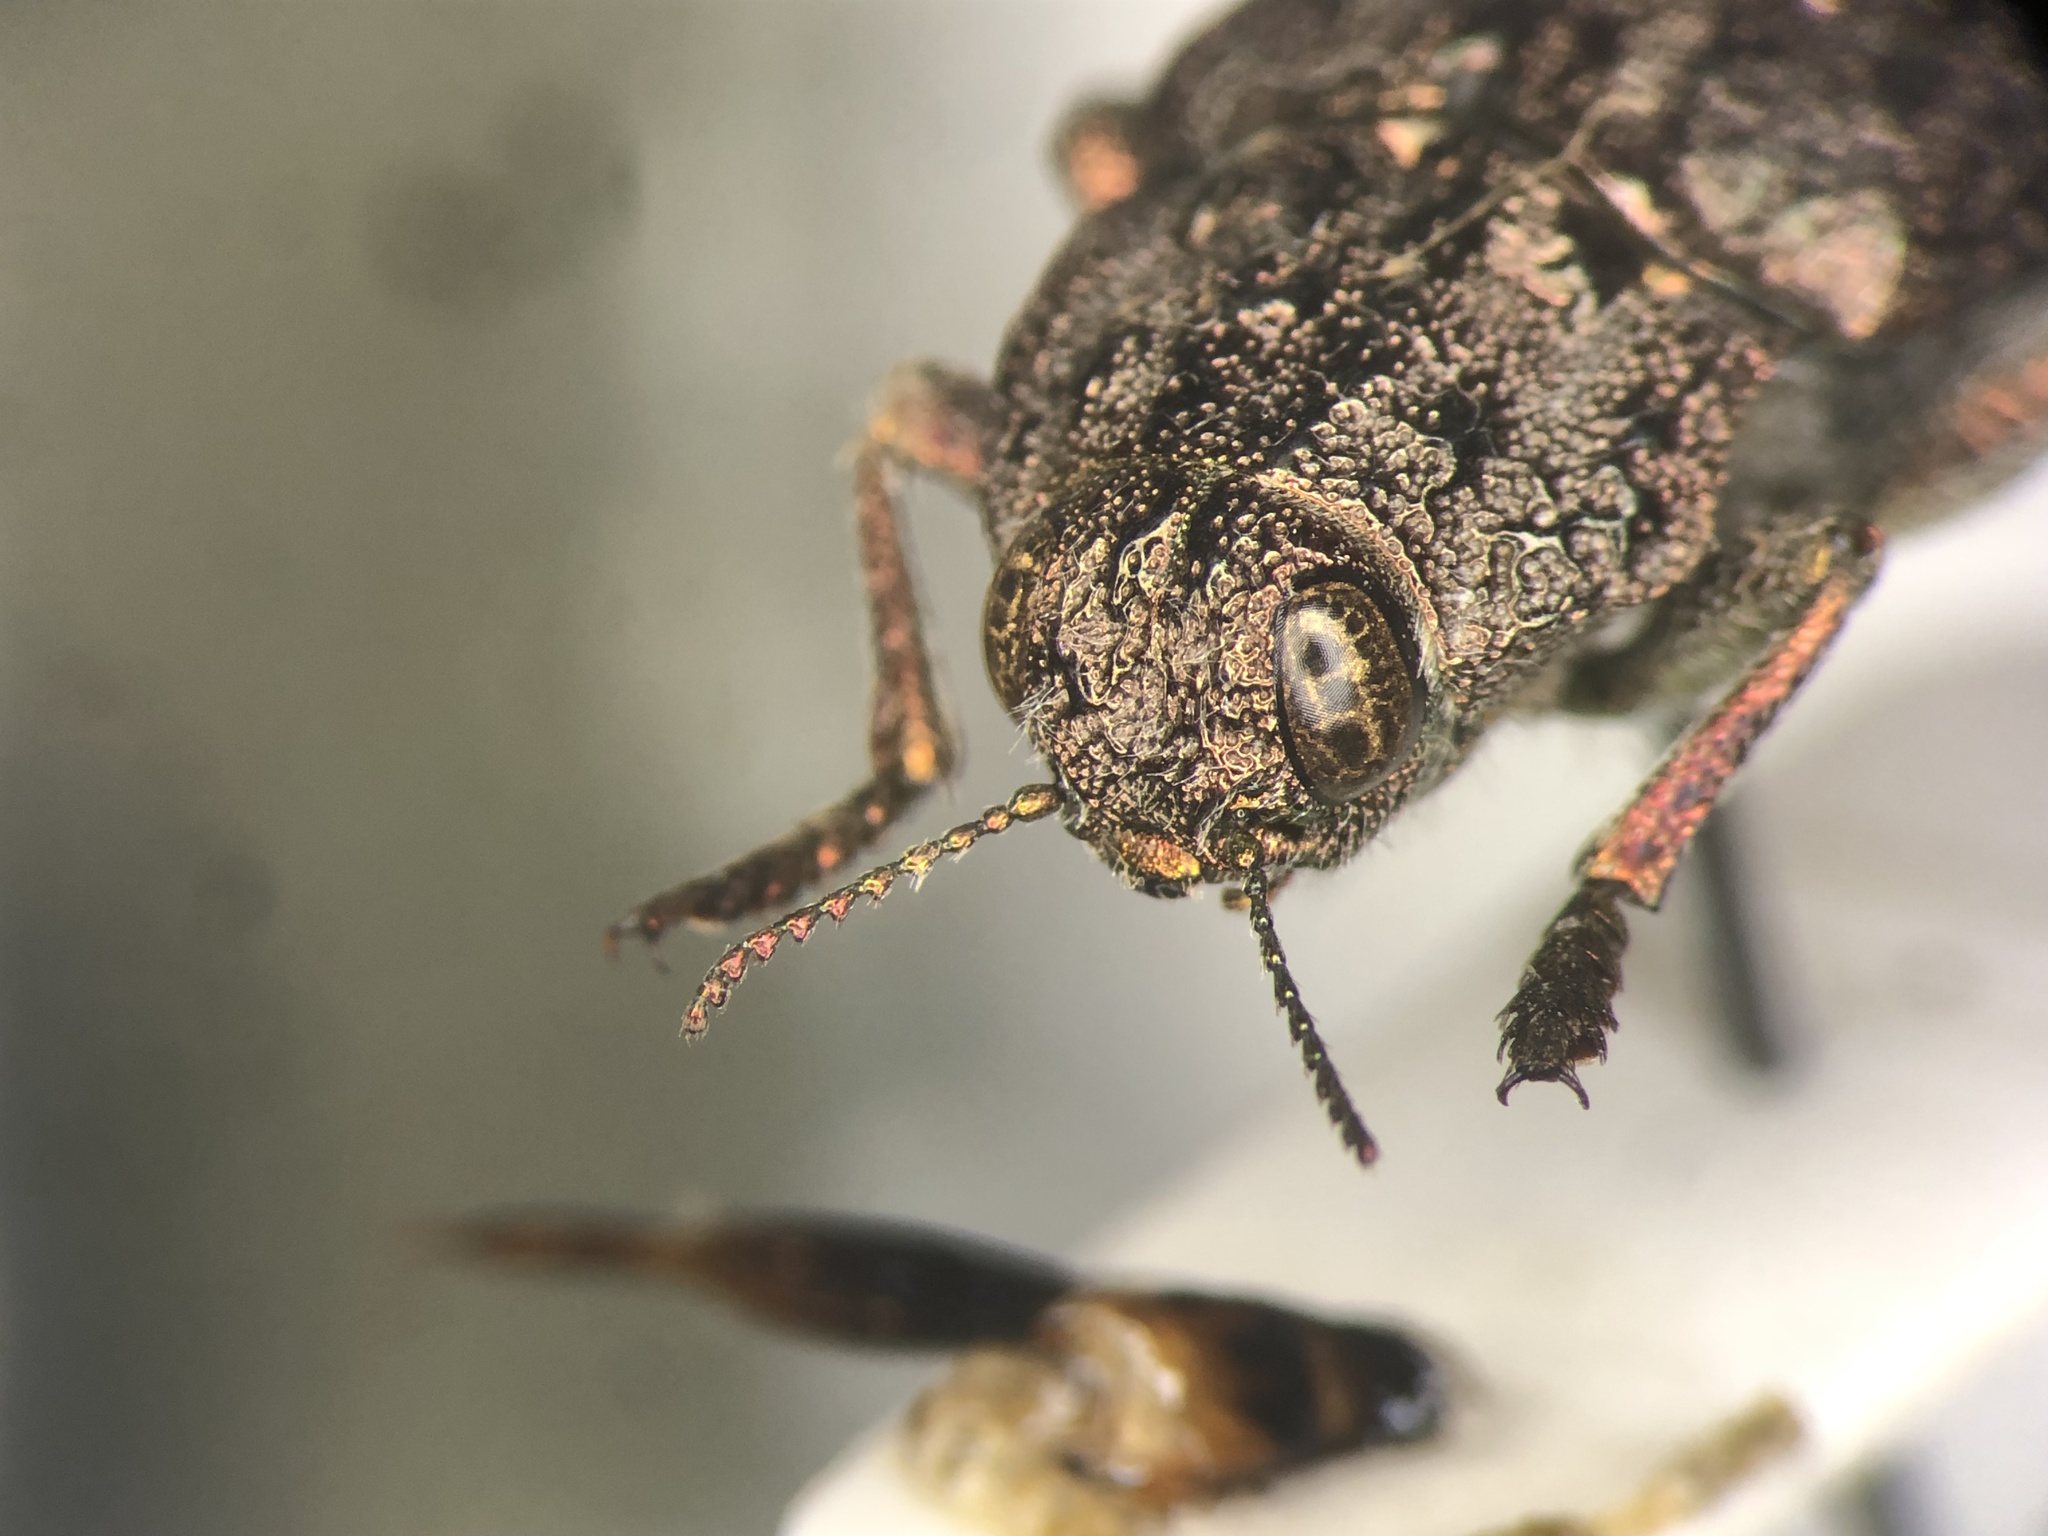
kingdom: Animalia
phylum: Arthropoda
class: Insecta
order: Coleoptera
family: Buprestidae
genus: Dicerca
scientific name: Dicerca tenebrosa
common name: Dark jewel beetle
